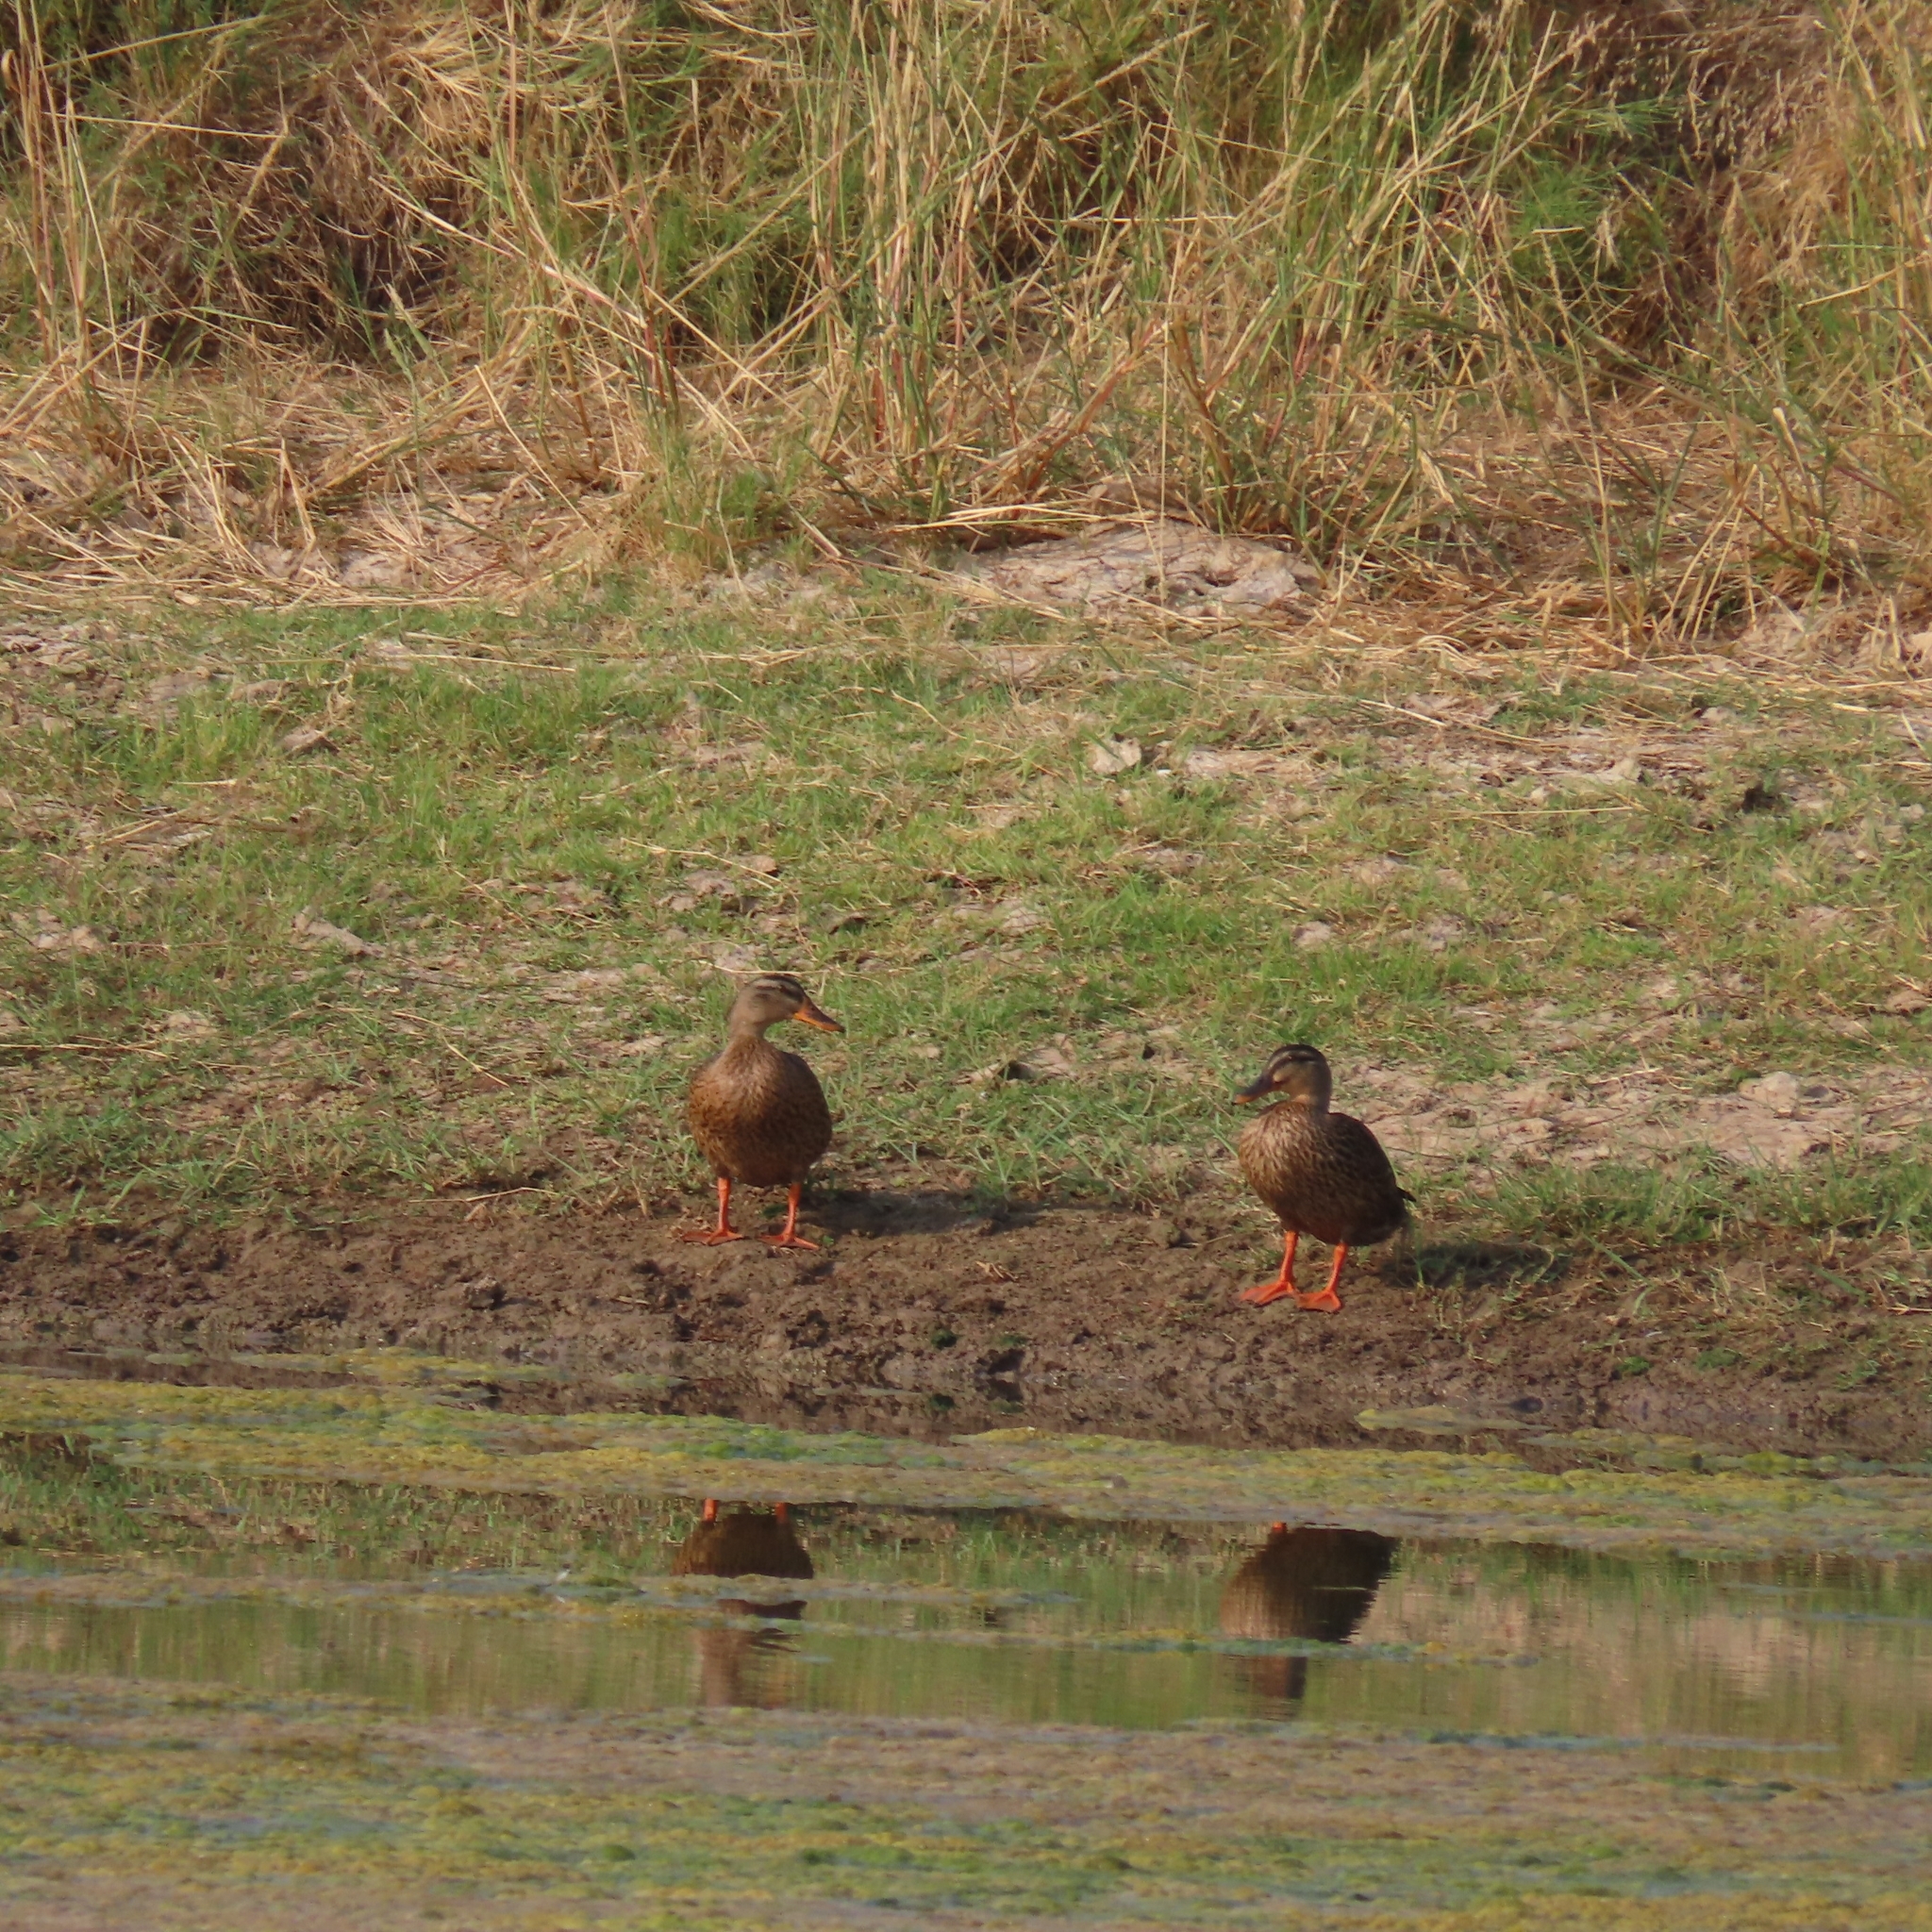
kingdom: Animalia
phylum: Chordata
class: Aves
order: Anseriformes
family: Anatidae
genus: Anas
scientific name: Anas platyrhynchos
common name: Mallard
